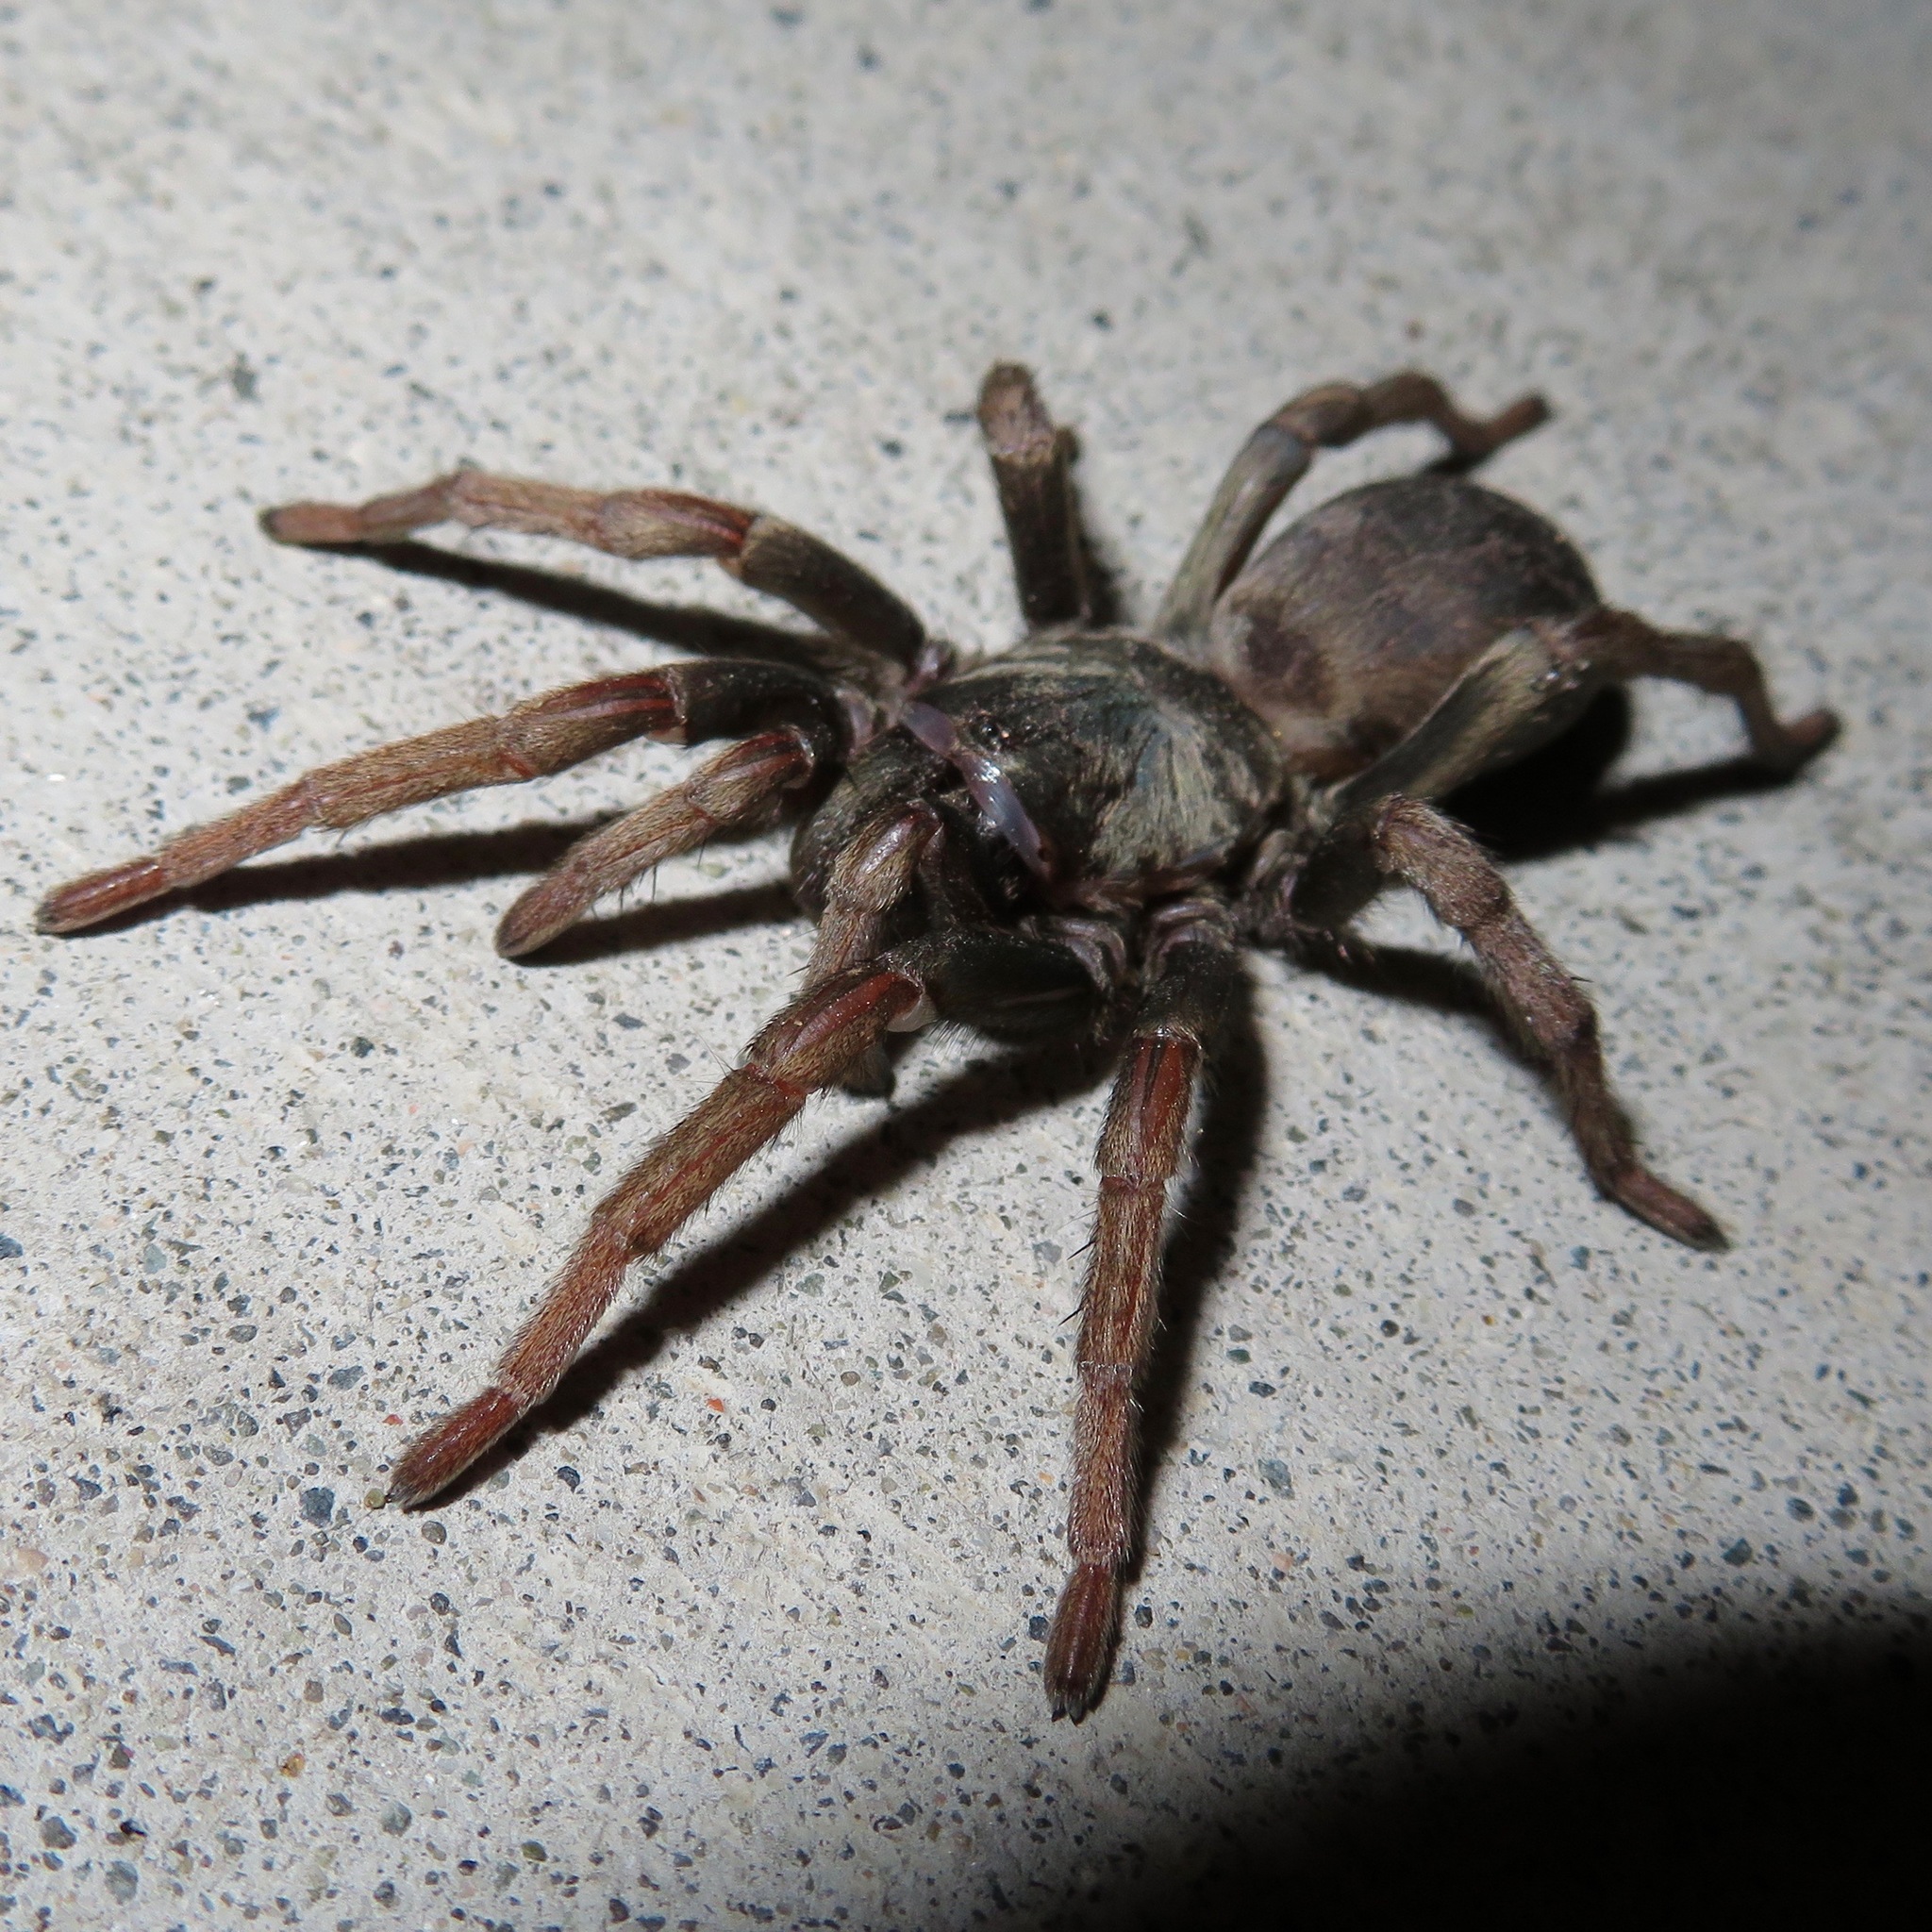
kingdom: Animalia
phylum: Arthropoda
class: Arachnida
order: Araneae
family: Nemesiidae
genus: Calisoga
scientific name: Calisoga longitarsis
